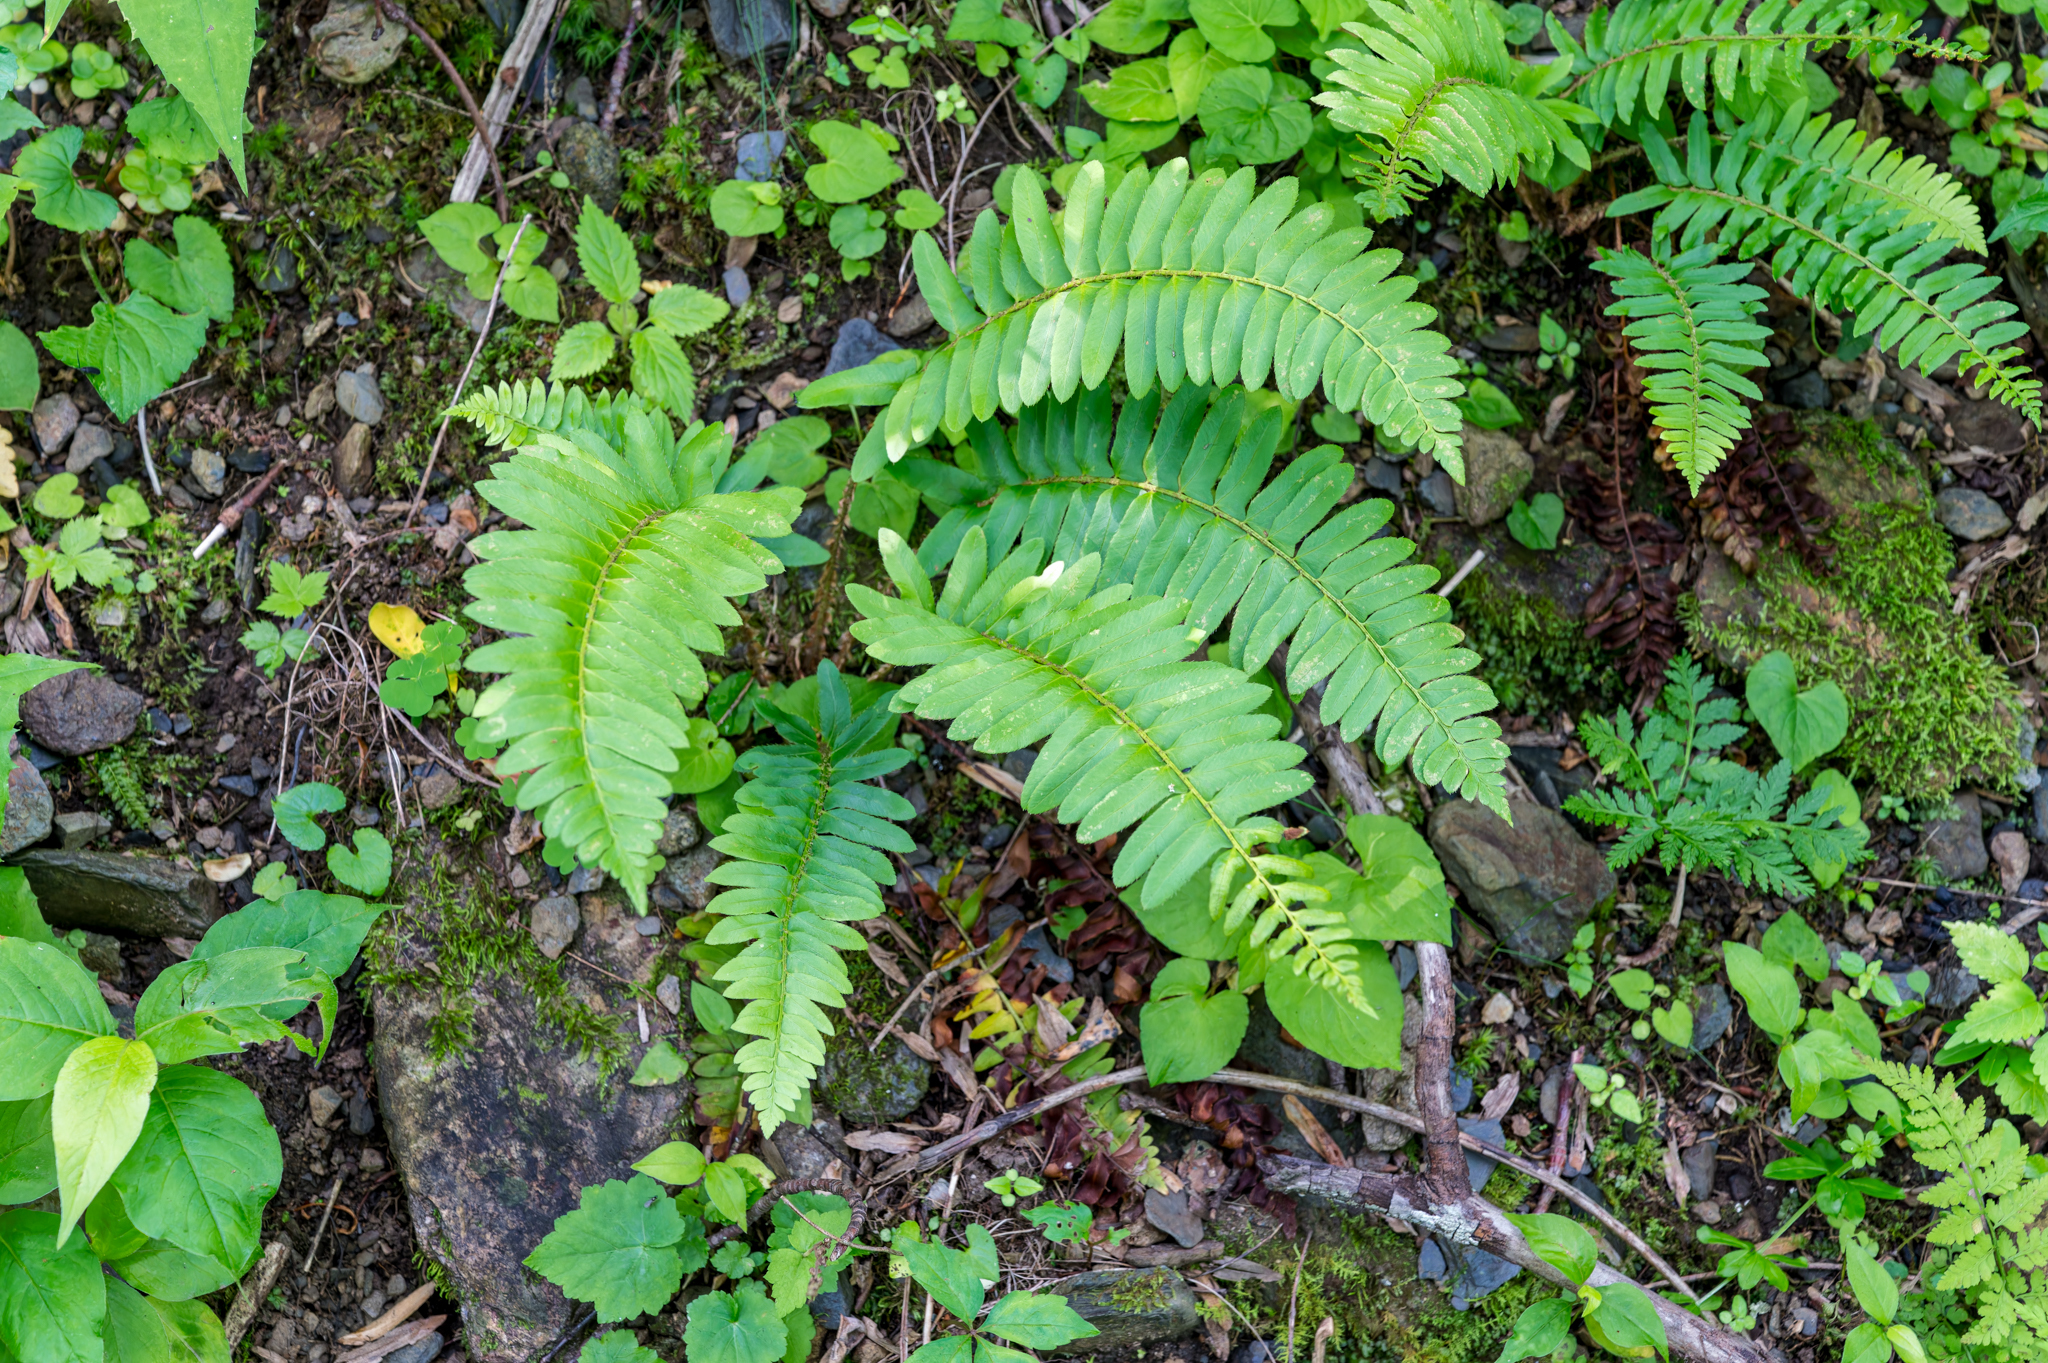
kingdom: Plantae
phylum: Tracheophyta
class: Polypodiopsida
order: Polypodiales
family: Dryopteridaceae
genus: Polystichum
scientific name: Polystichum acrostichoides
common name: Christmas fern
